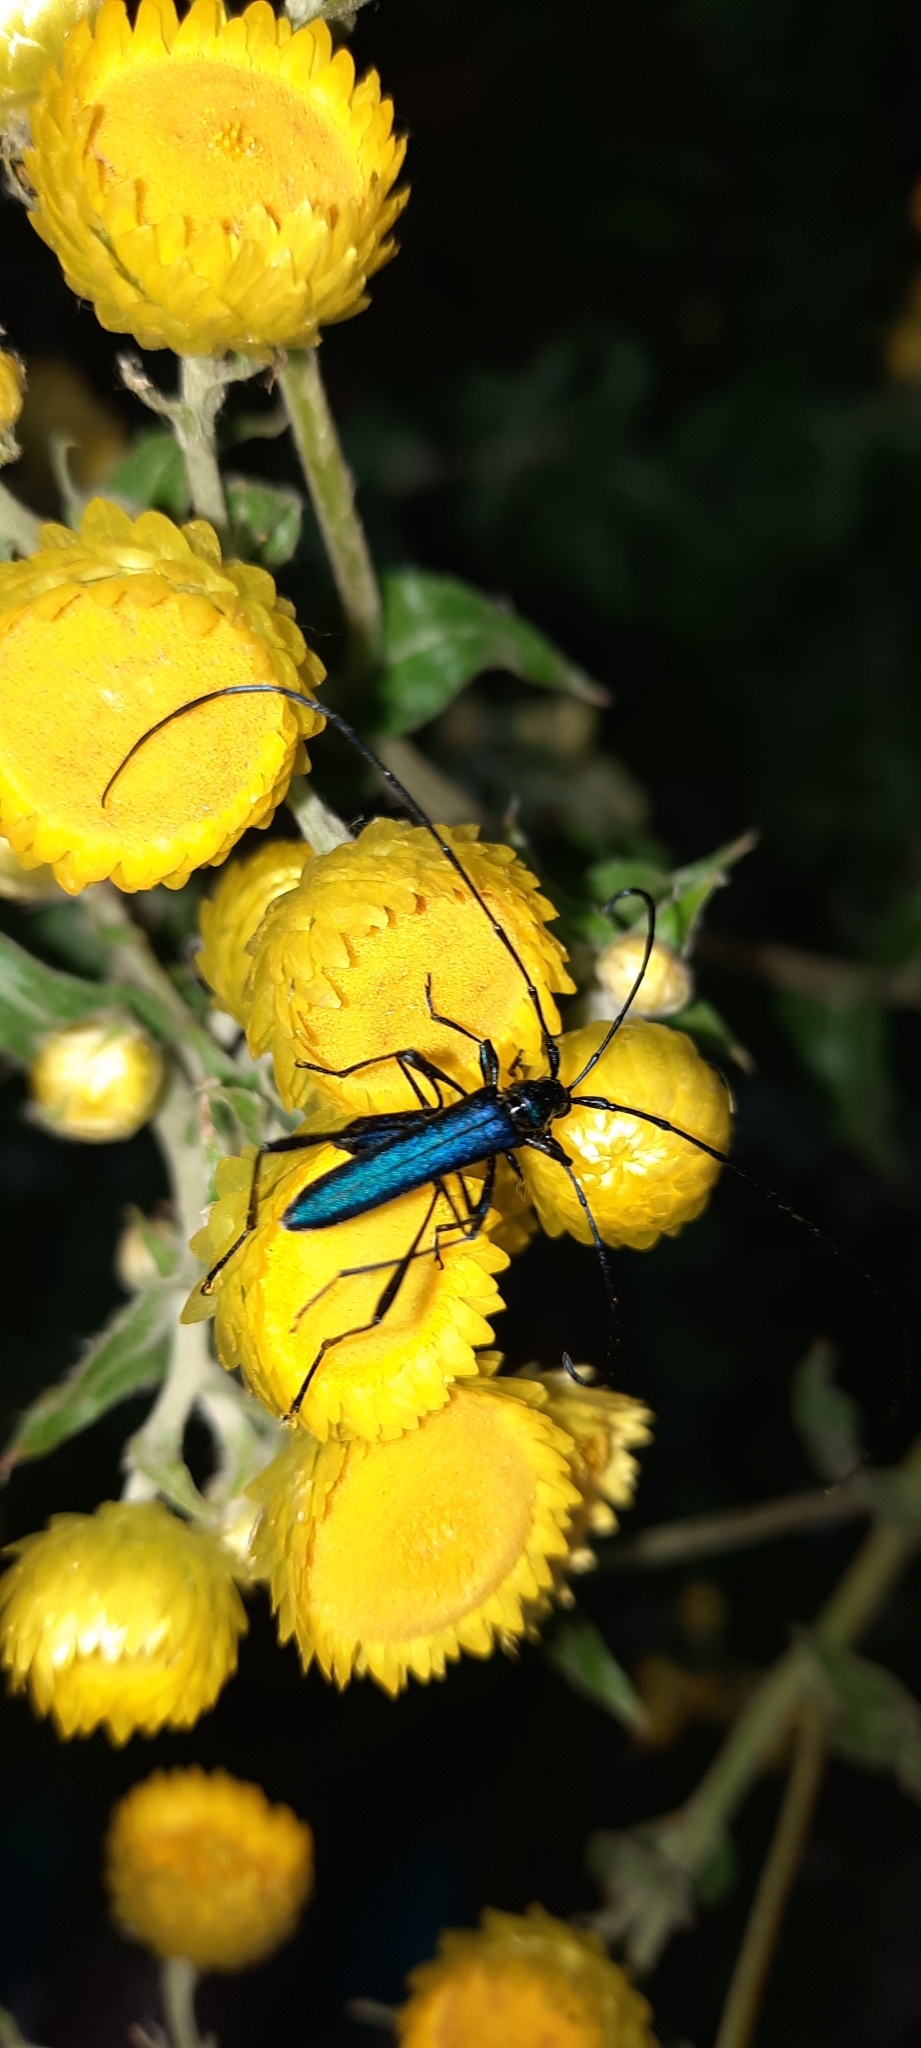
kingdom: Animalia
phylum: Arthropoda
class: Insecta
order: Coleoptera
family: Cerambycidae
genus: Promeces
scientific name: Promeces longipes
